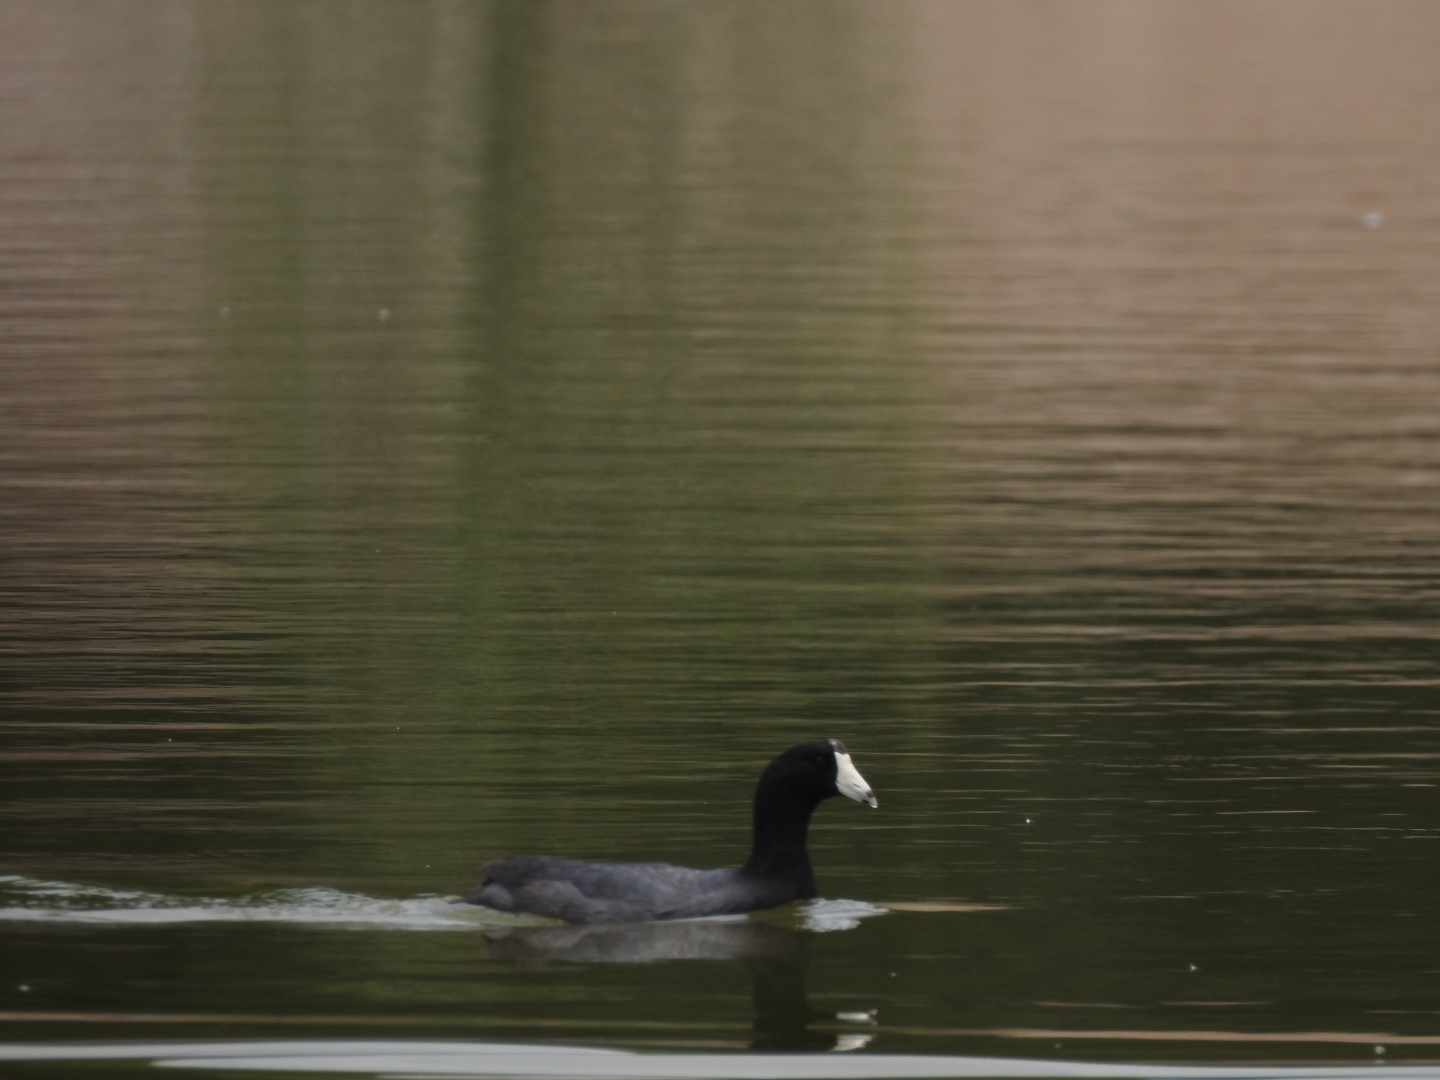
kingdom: Animalia
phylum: Chordata
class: Aves
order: Gruiformes
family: Rallidae
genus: Fulica
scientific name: Fulica americana
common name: American coot
